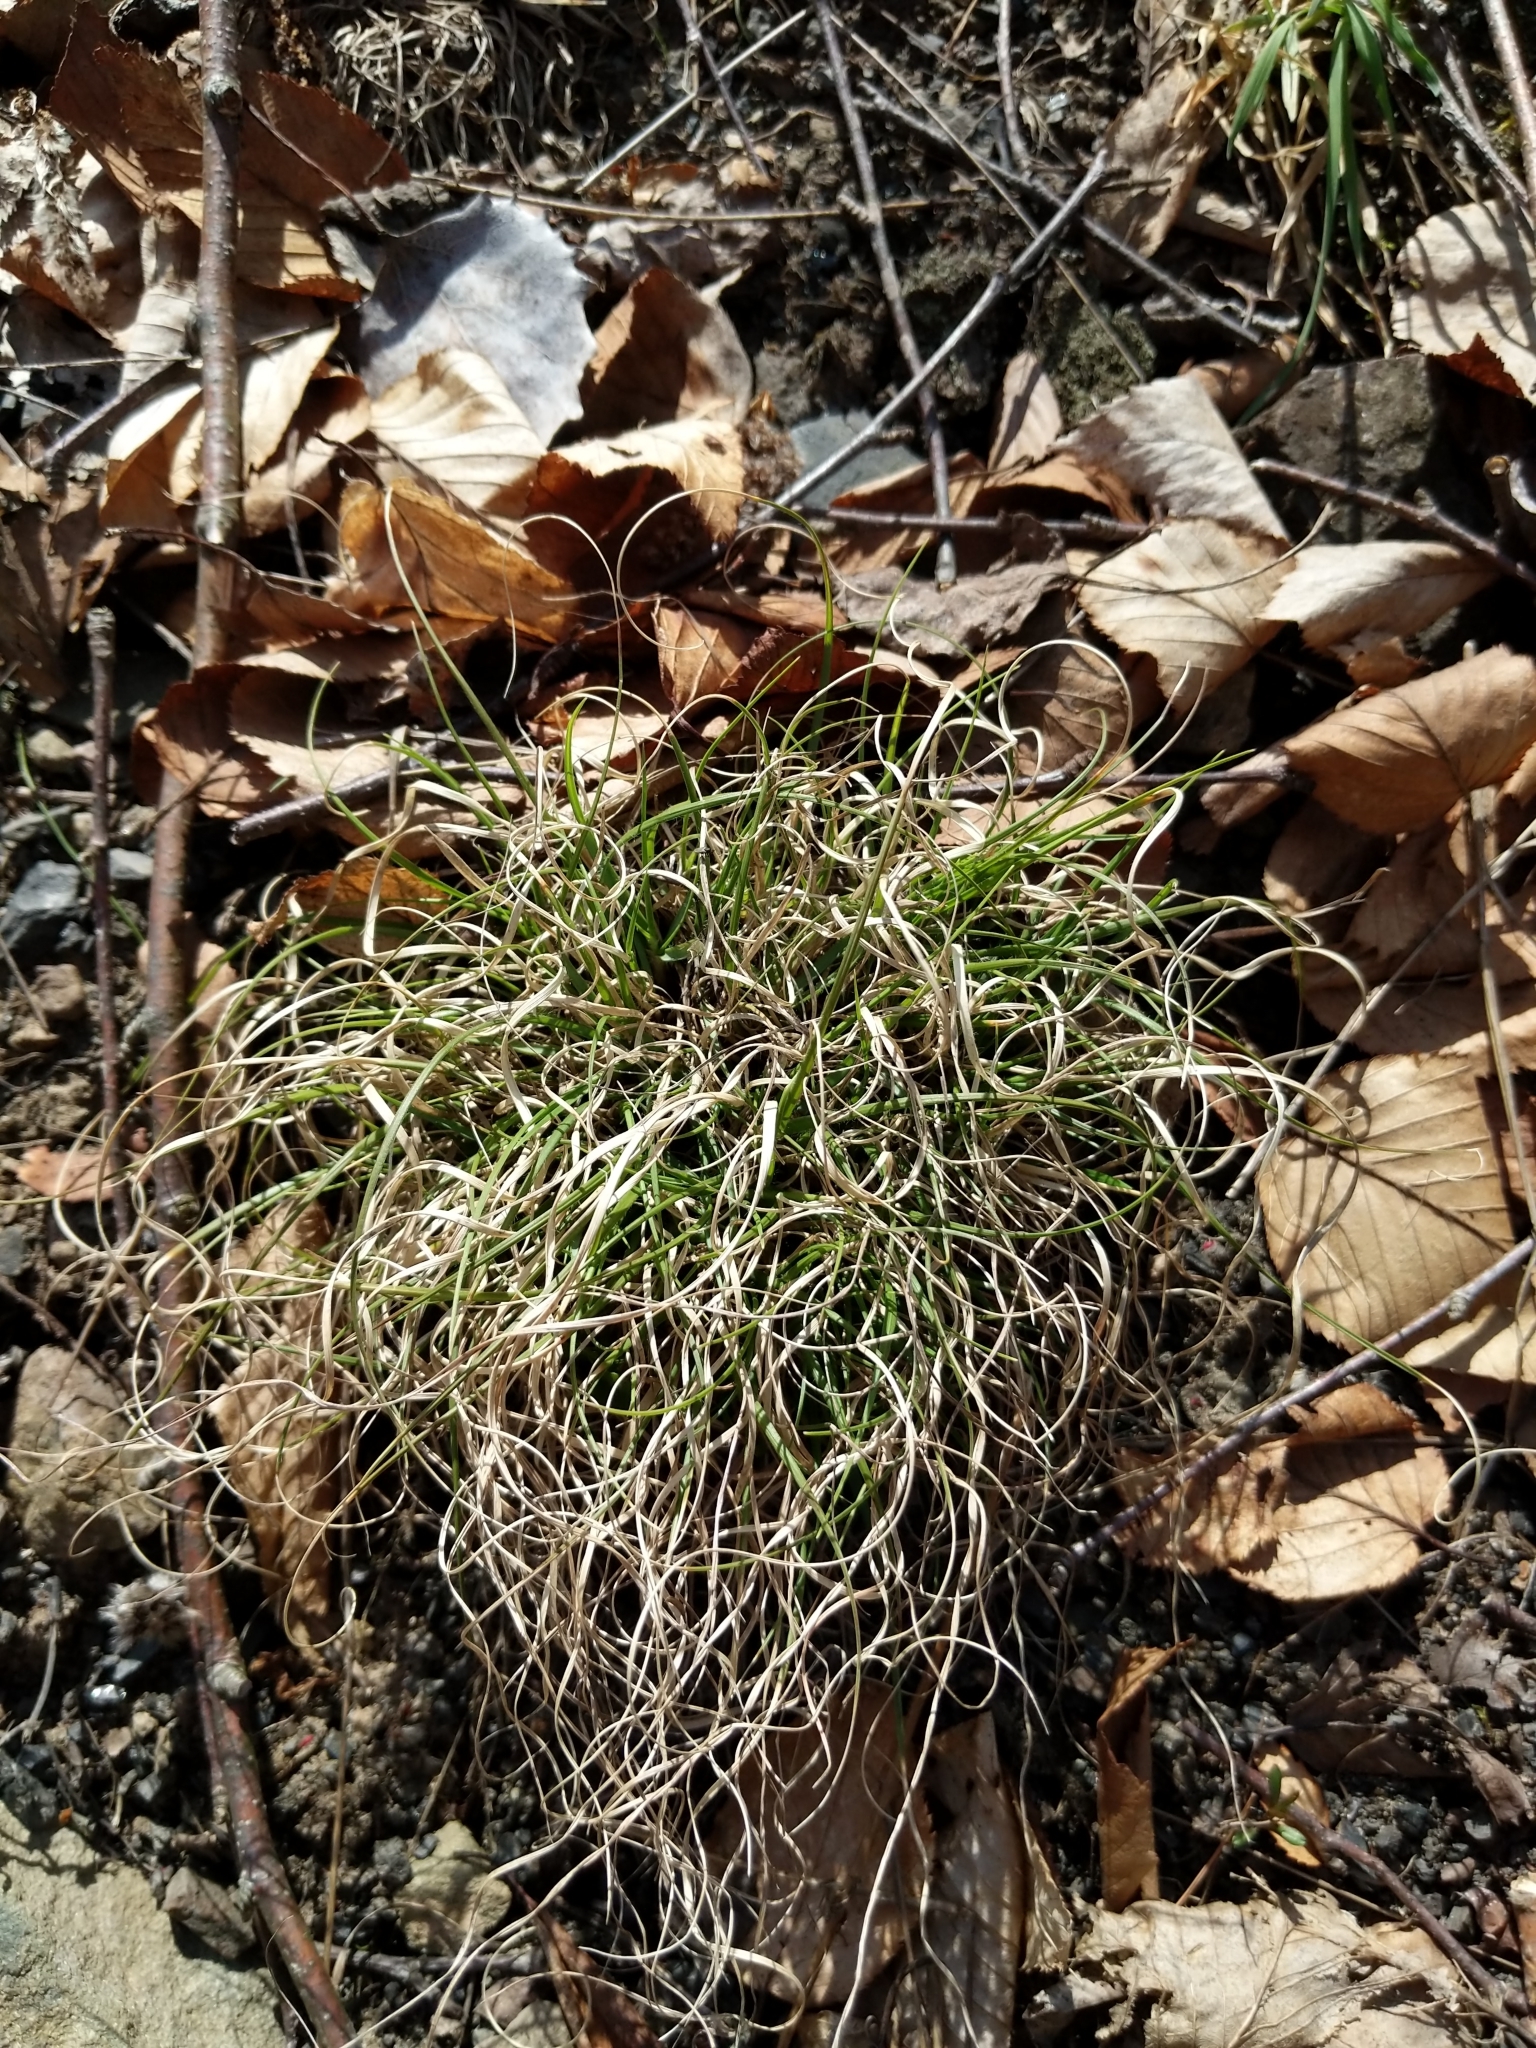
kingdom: Plantae
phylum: Tracheophyta
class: Liliopsida
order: Poales
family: Poaceae
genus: Danthonia
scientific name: Danthonia spicata
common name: Common wild oatgrass
